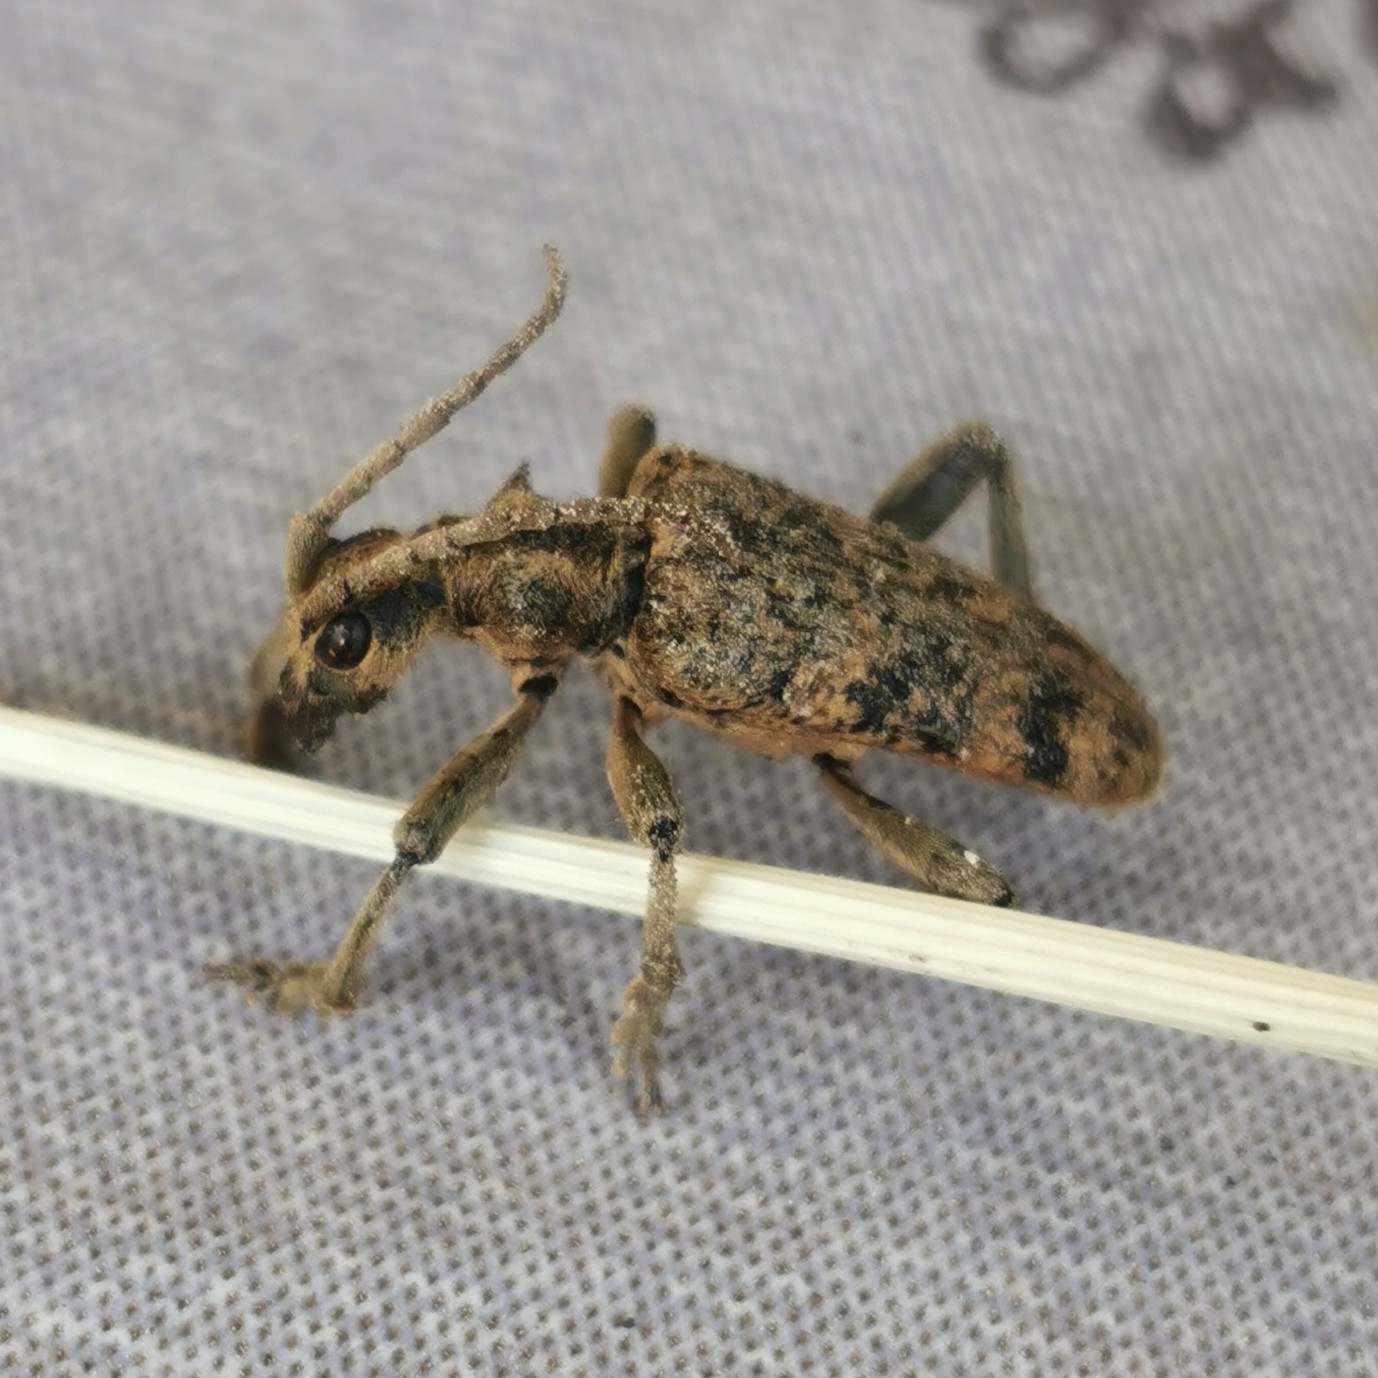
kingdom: Animalia
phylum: Arthropoda
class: Insecta
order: Coleoptera
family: Cerambycidae
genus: Rhagium
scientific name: Rhagium sycophanta
